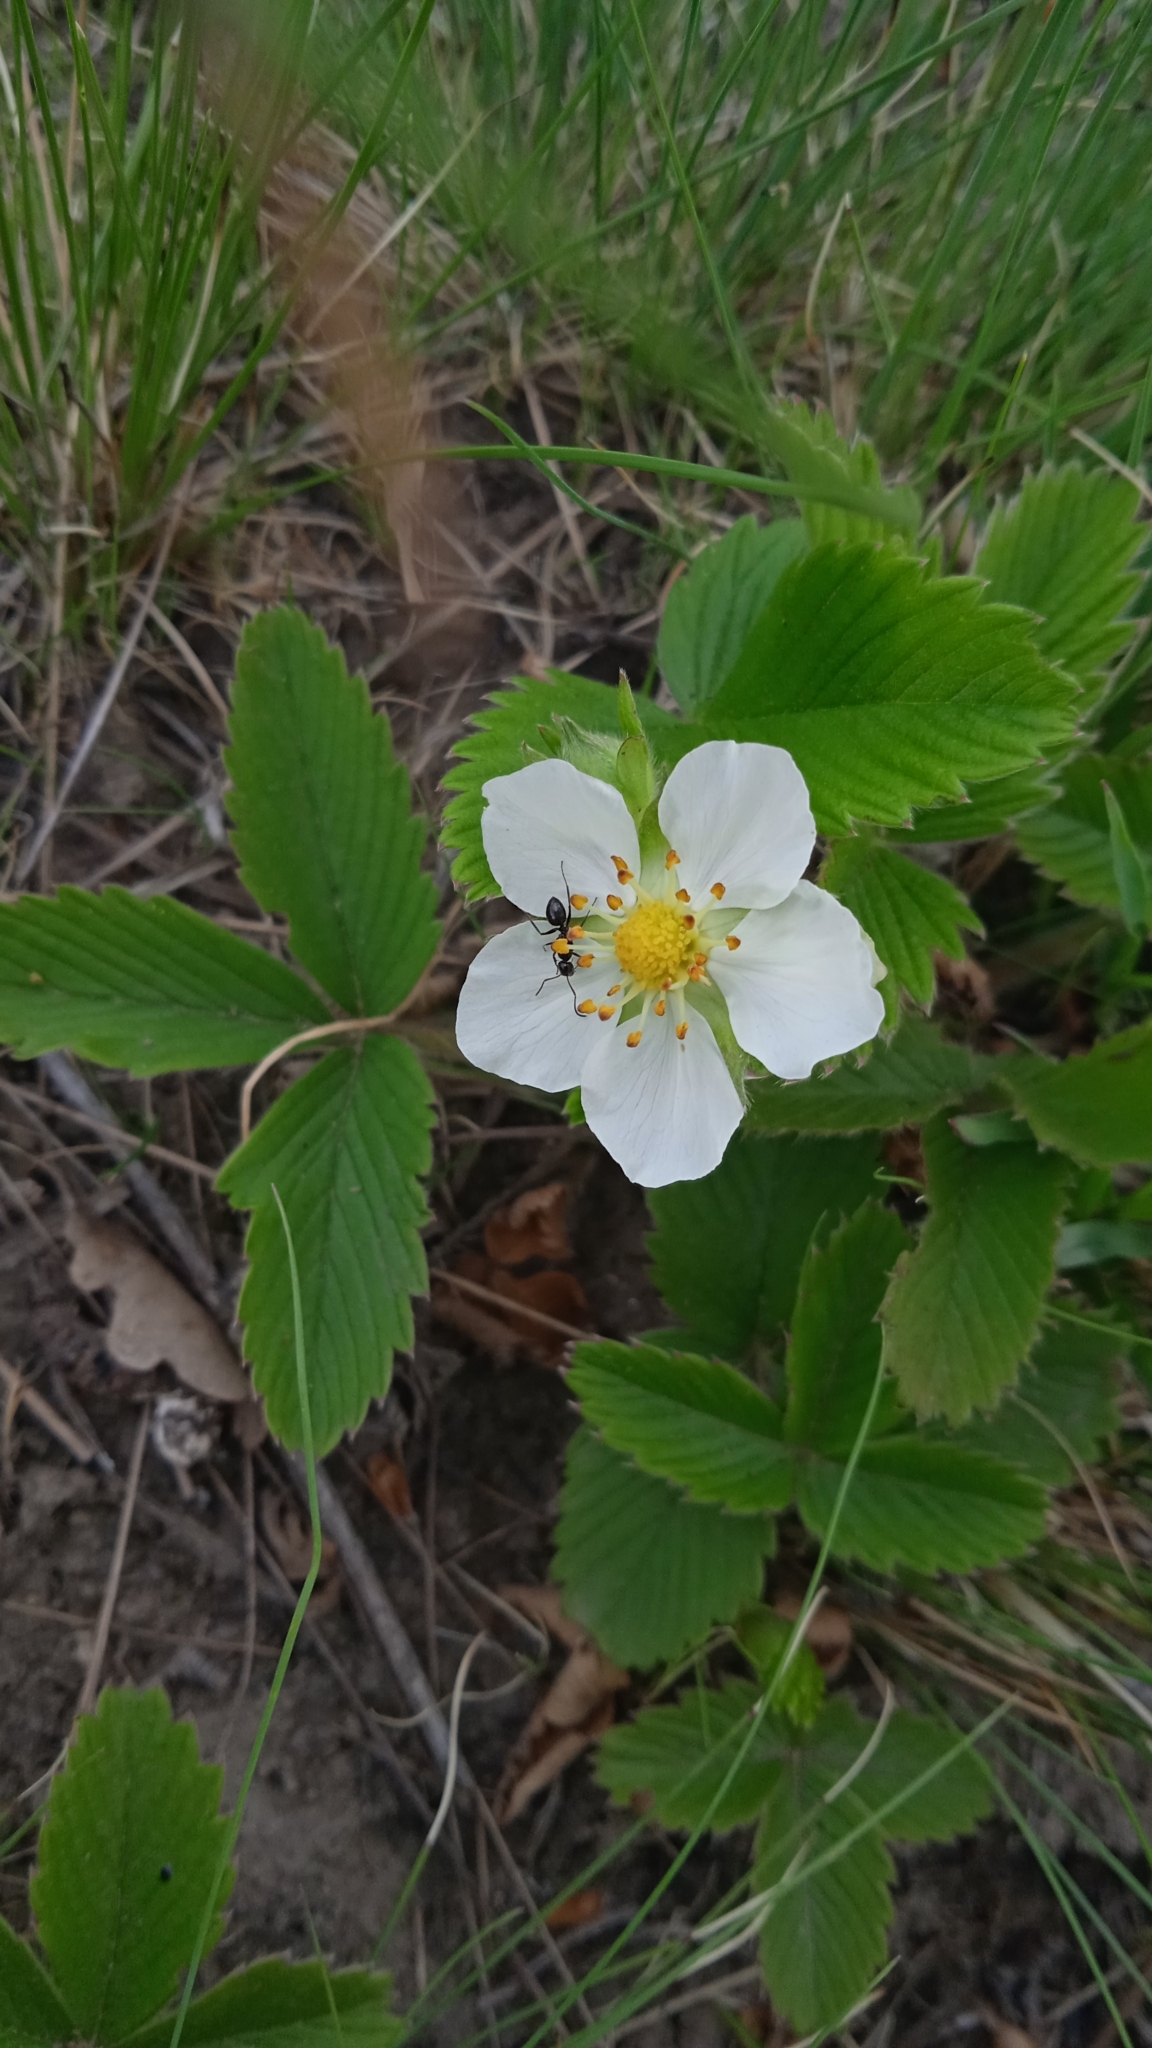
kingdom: Plantae
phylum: Tracheophyta
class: Magnoliopsida
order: Rosales
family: Rosaceae
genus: Fragaria
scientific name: Fragaria viridis
